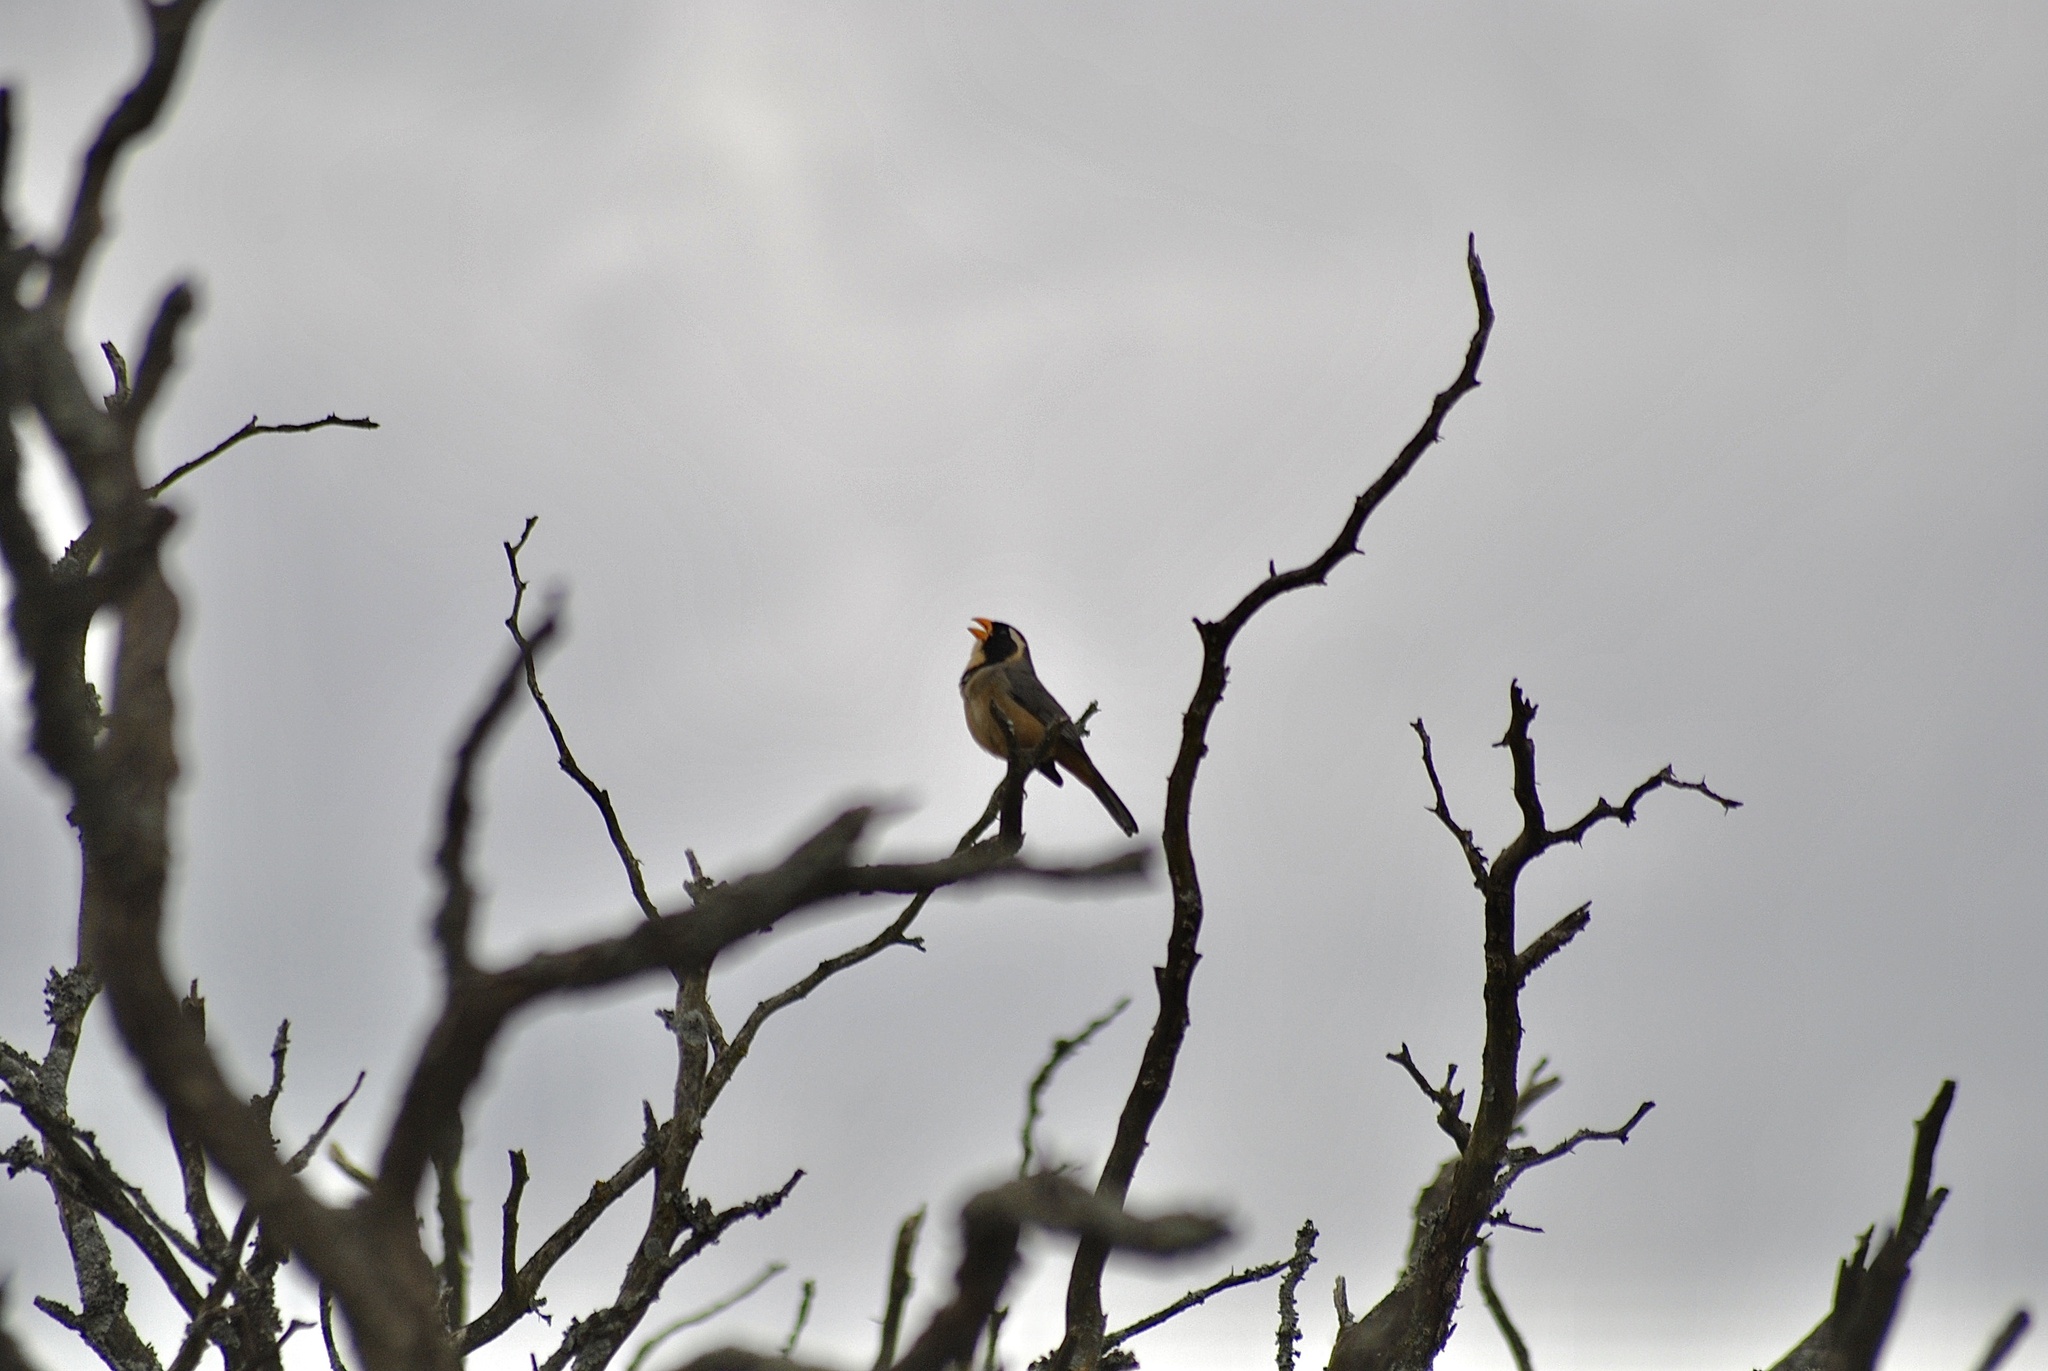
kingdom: Animalia
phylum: Chordata
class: Aves
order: Passeriformes
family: Thraupidae
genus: Saltator
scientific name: Saltator aurantiirostris
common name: Golden-billed saltator
